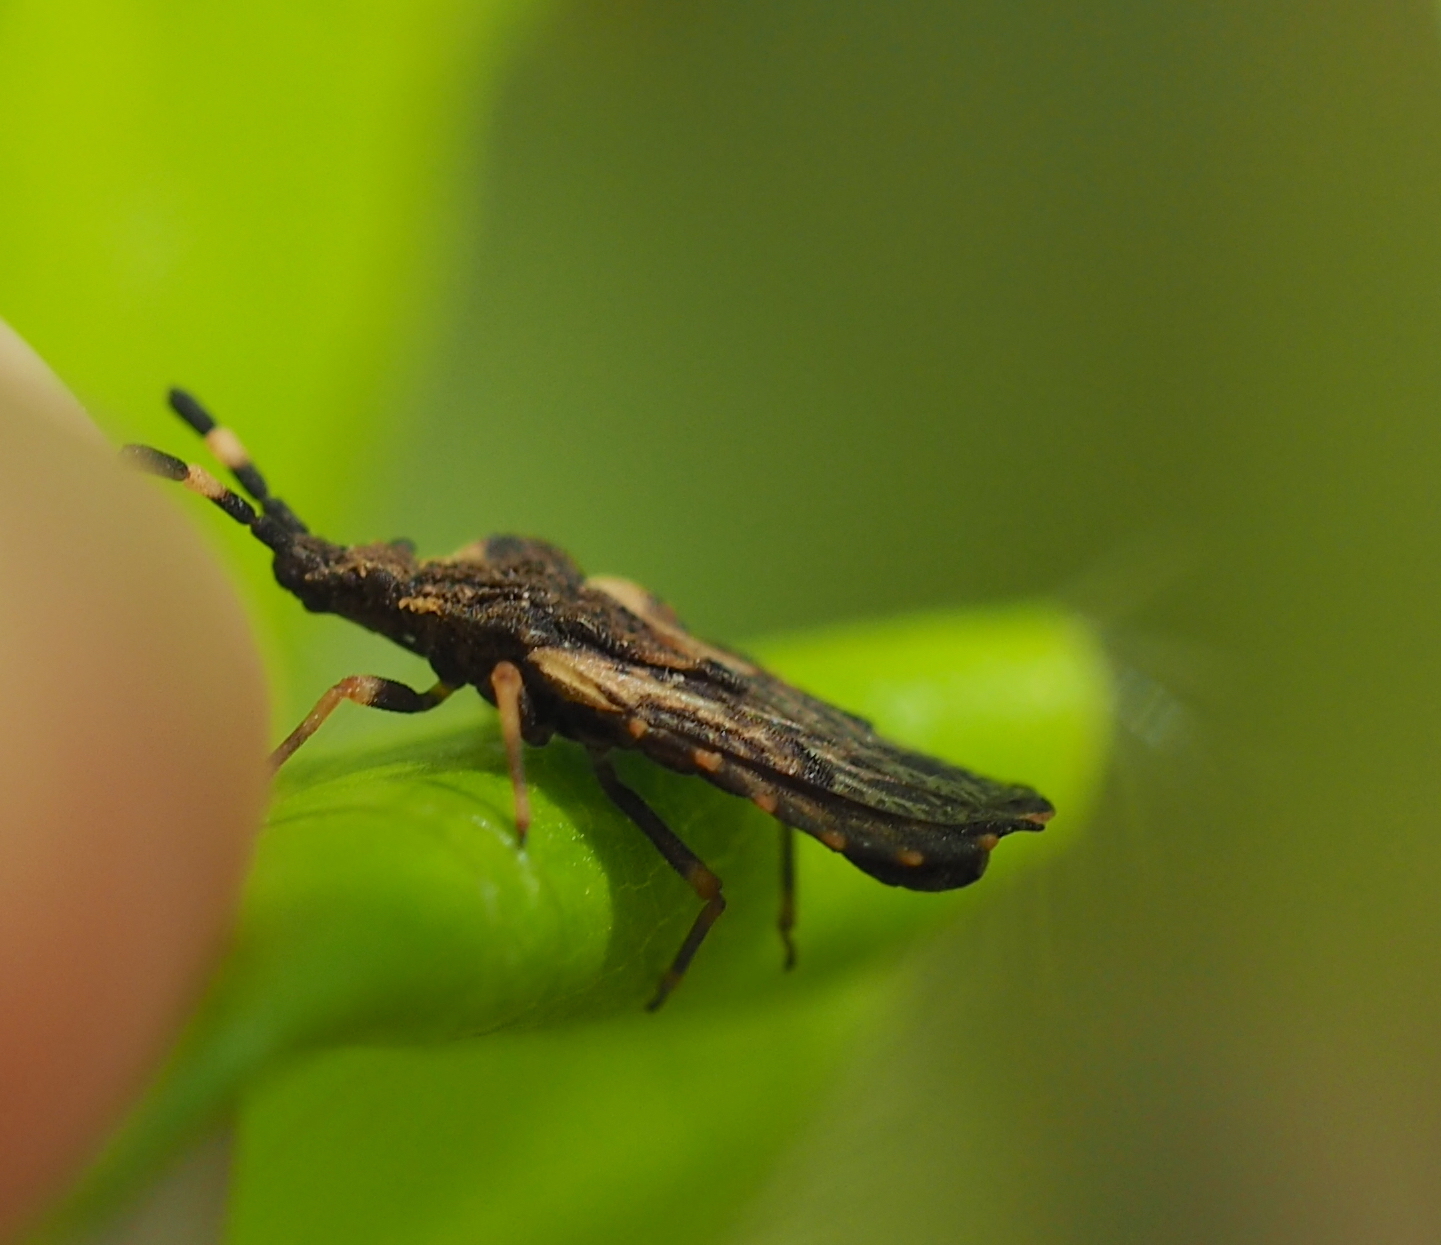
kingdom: Animalia
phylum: Arthropoda
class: Insecta
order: Hemiptera
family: Aradidae
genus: Aradus
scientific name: Aradus versicolor
